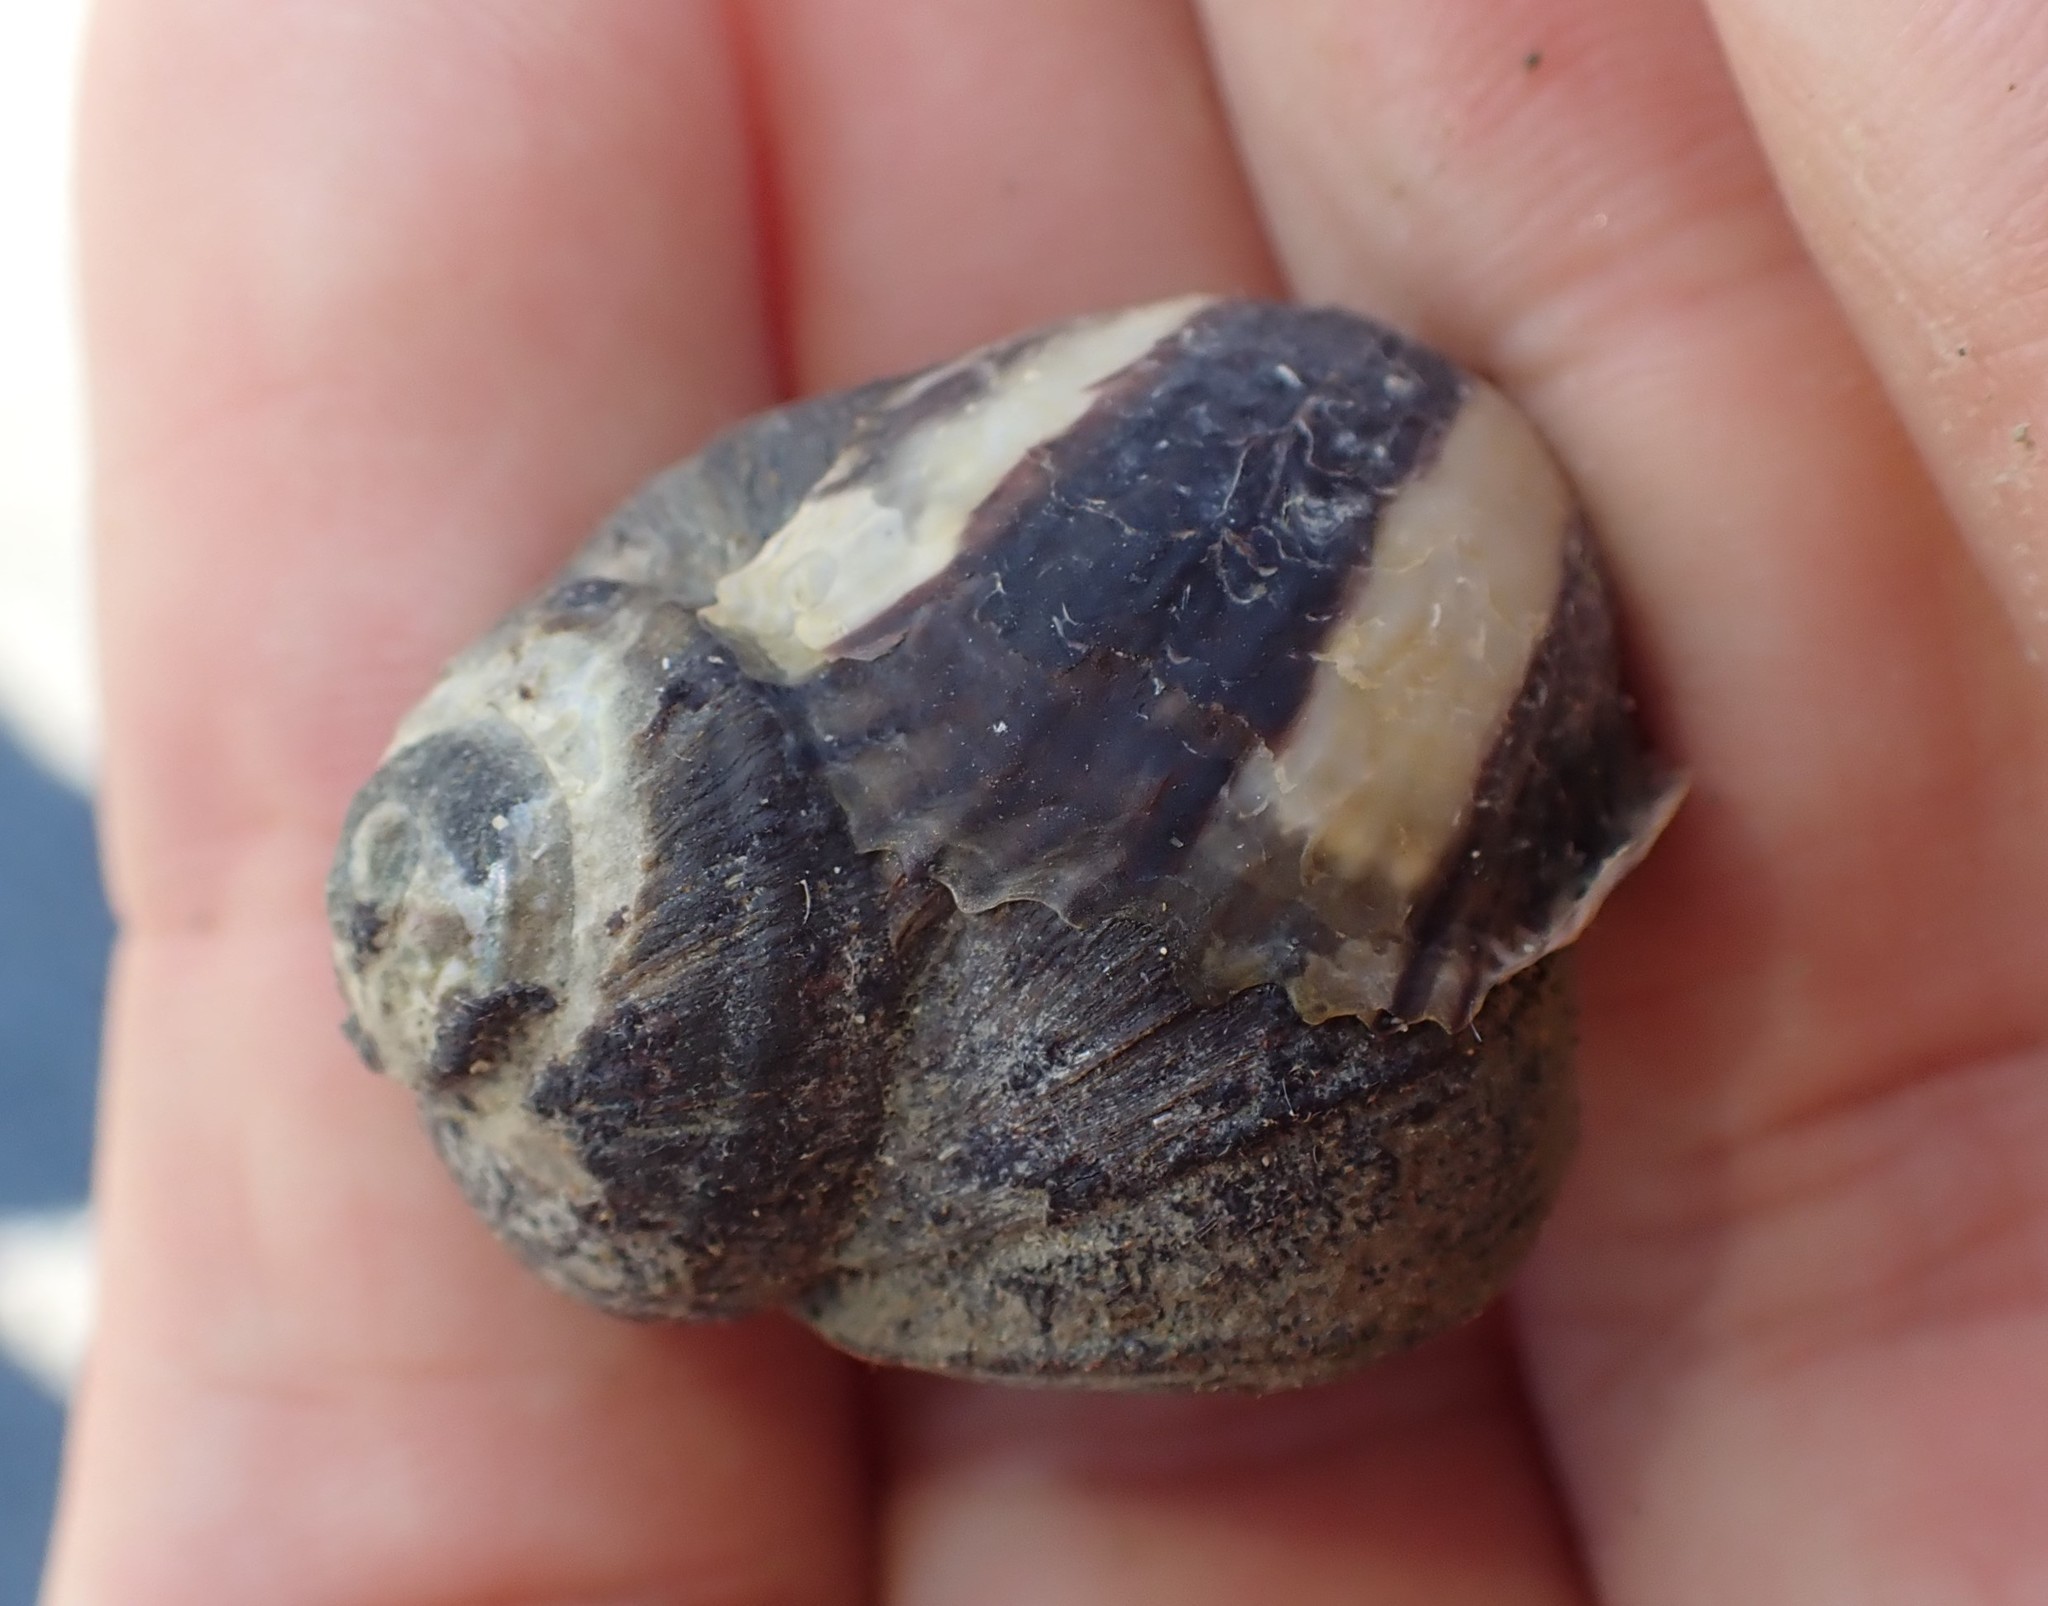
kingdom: Animalia
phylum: Mollusca
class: Bivalvia
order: Ostreida
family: Ostreidae
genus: Magallana
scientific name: Magallana gigas
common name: Pacific oyster
